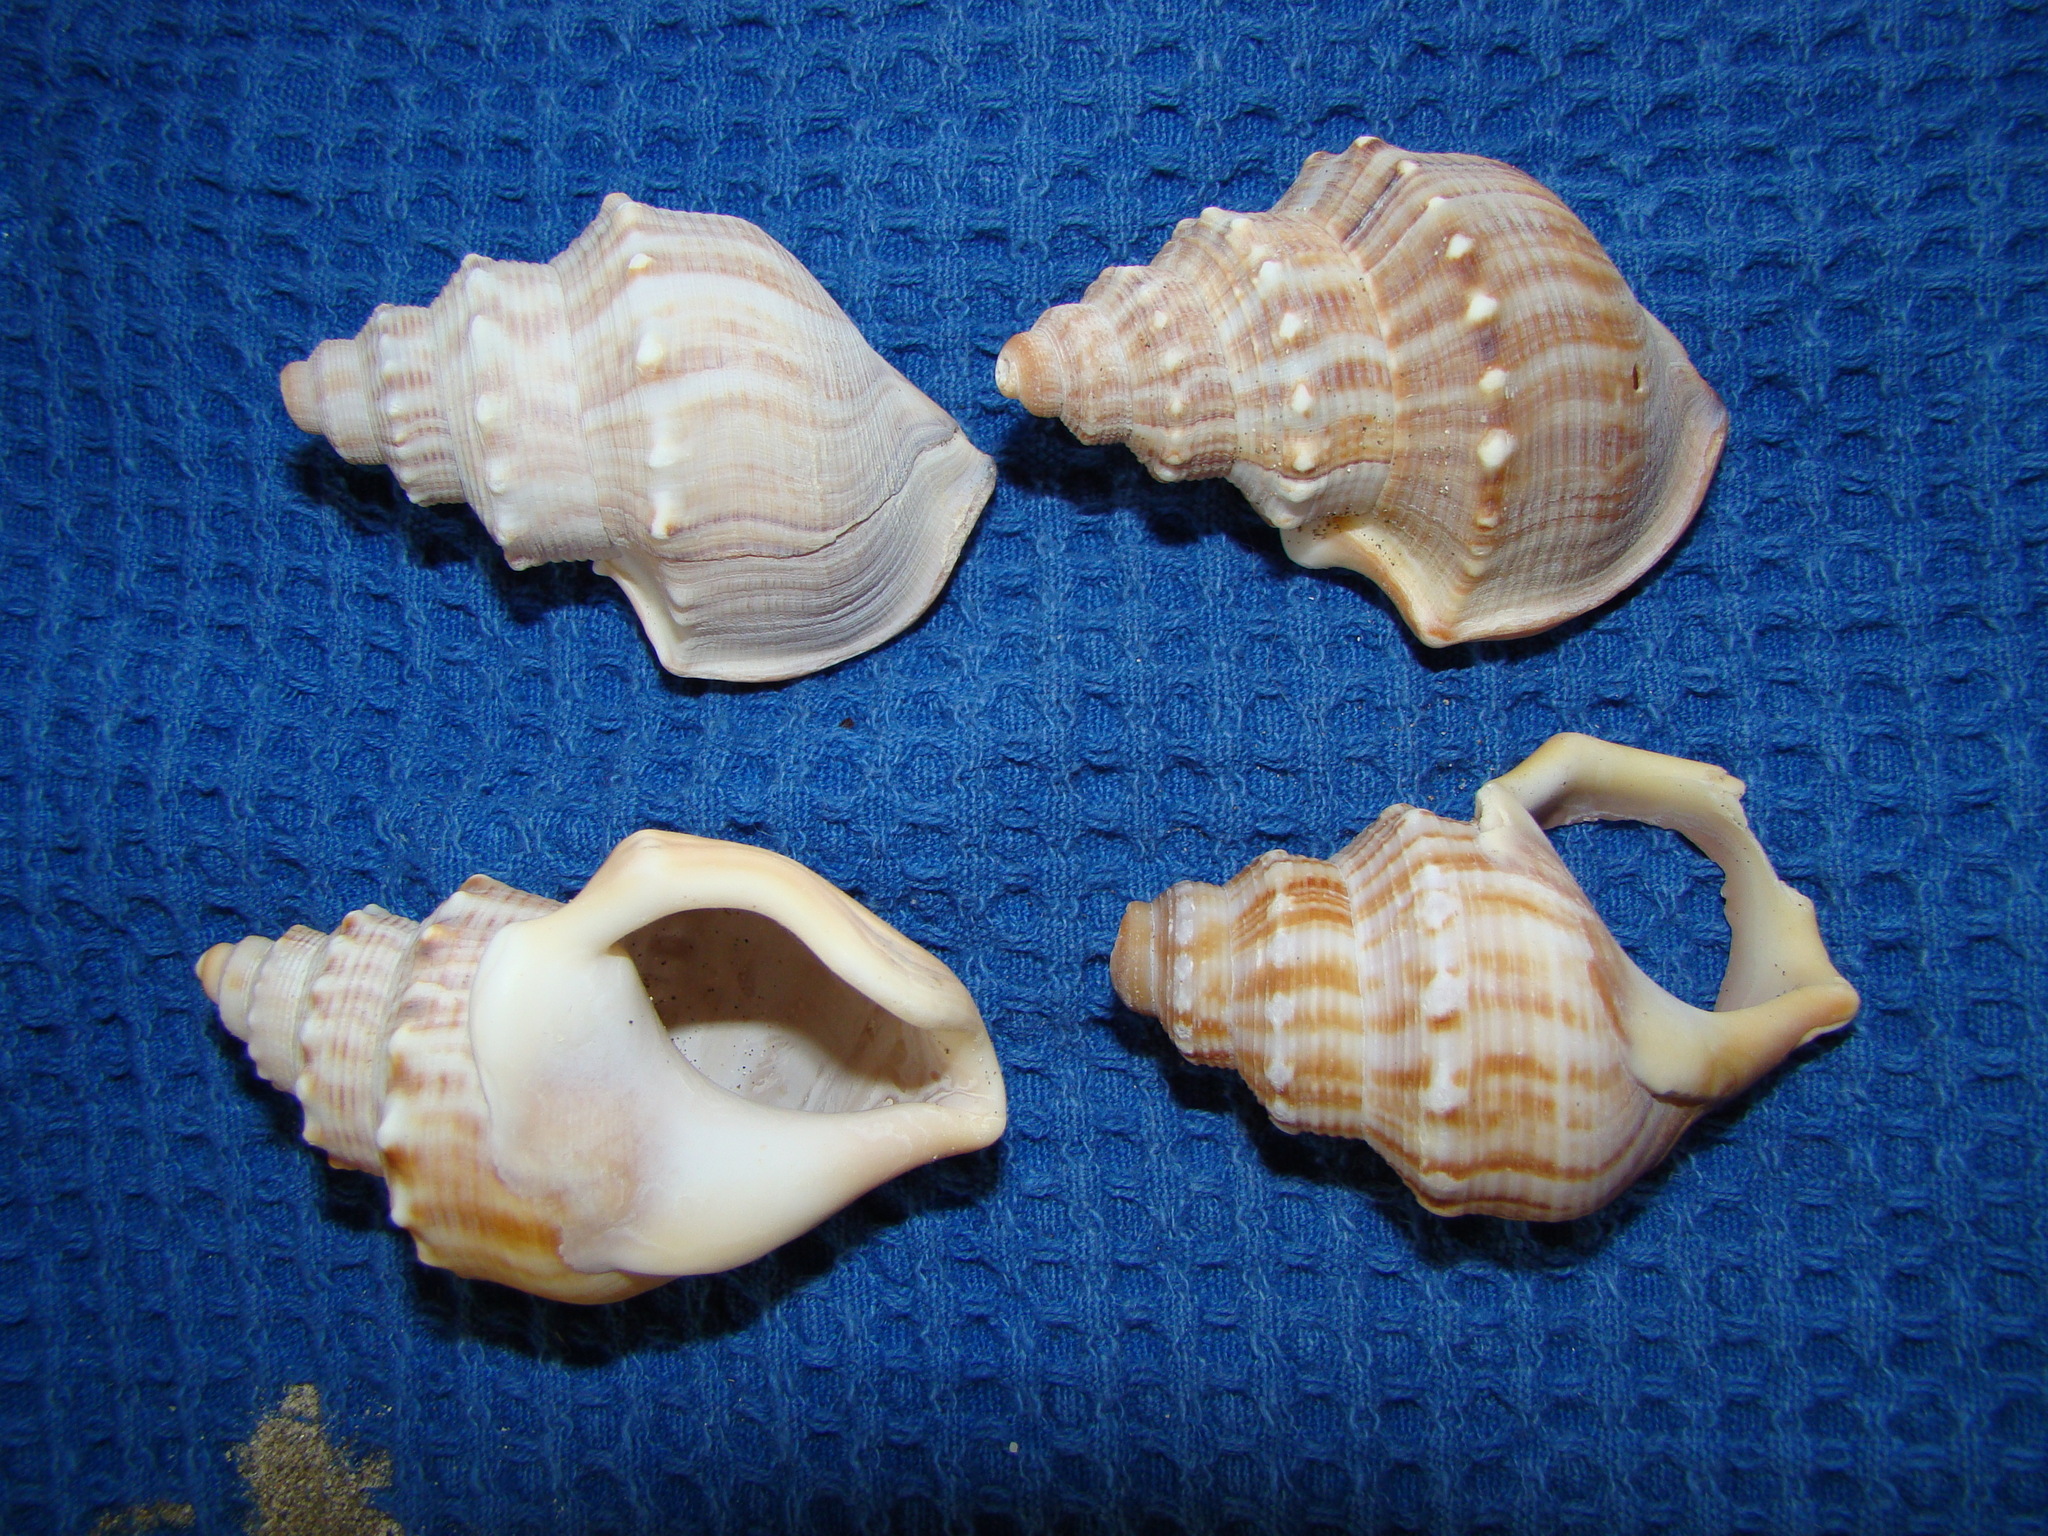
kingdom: Animalia
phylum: Mollusca
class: Gastropoda
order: Littorinimorpha
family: Struthiolariidae
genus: Struthiolaria
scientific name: Struthiolaria papulosa
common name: Large ostrich foot
